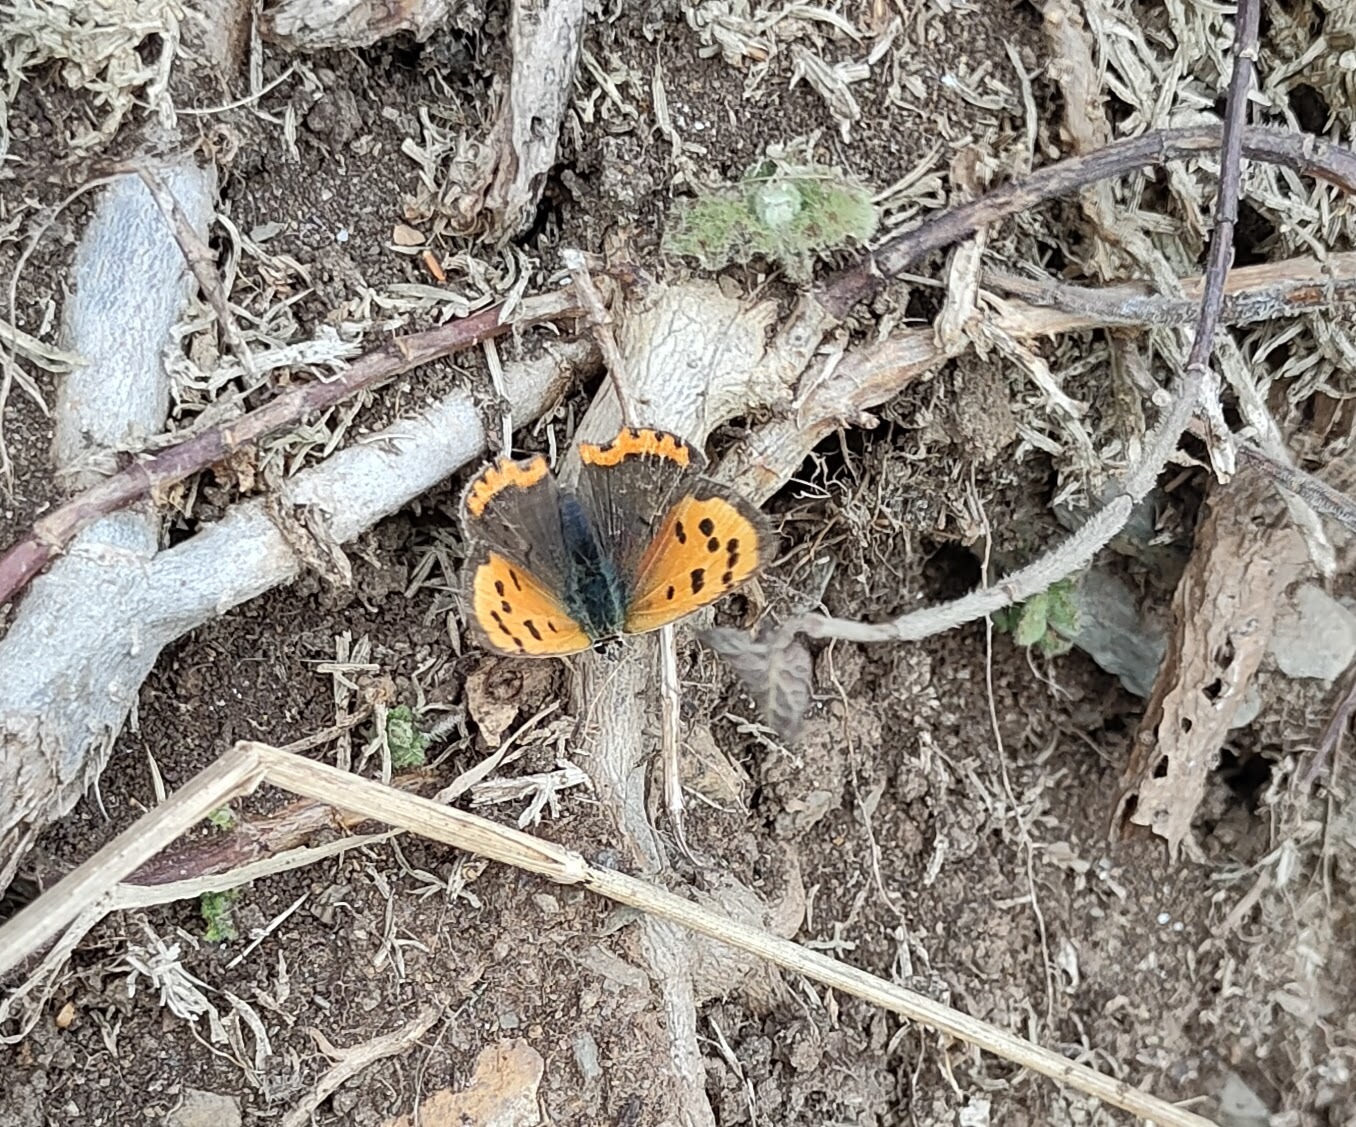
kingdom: Animalia
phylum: Arthropoda
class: Insecta
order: Lepidoptera
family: Lycaenidae
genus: Lycaena
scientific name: Lycaena phlaeas
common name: Small copper
